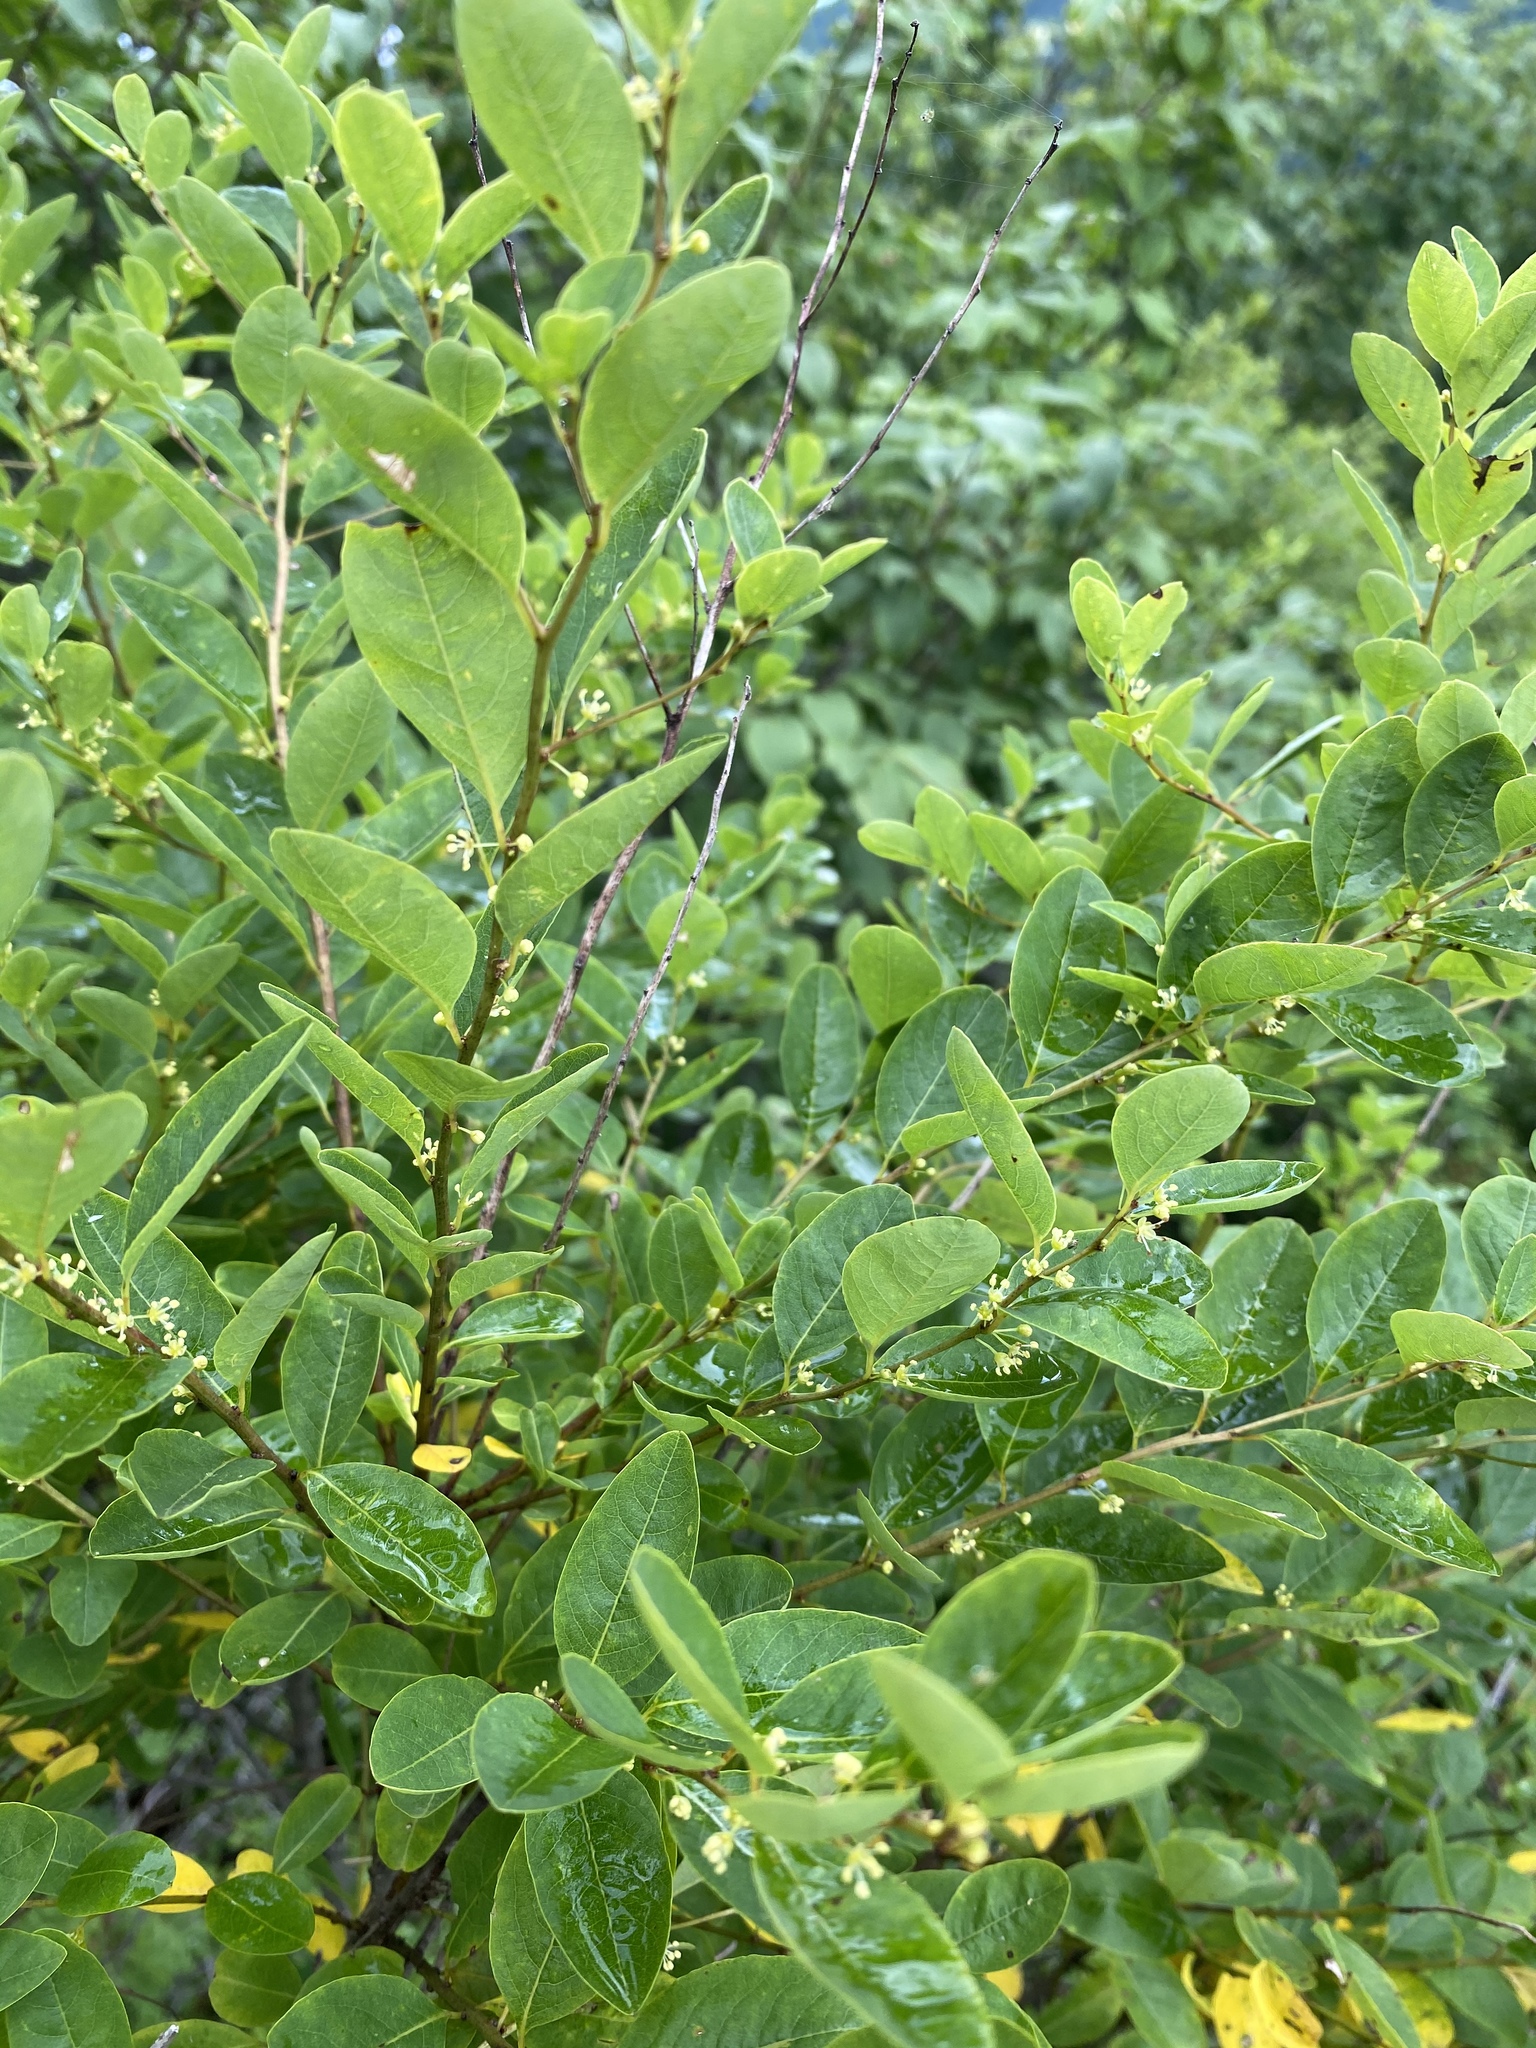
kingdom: Plantae
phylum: Tracheophyta
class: Magnoliopsida
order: Malpighiales
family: Phyllanthaceae
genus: Flueggea
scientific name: Flueggea suffruticosa
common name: Arching bushweed
